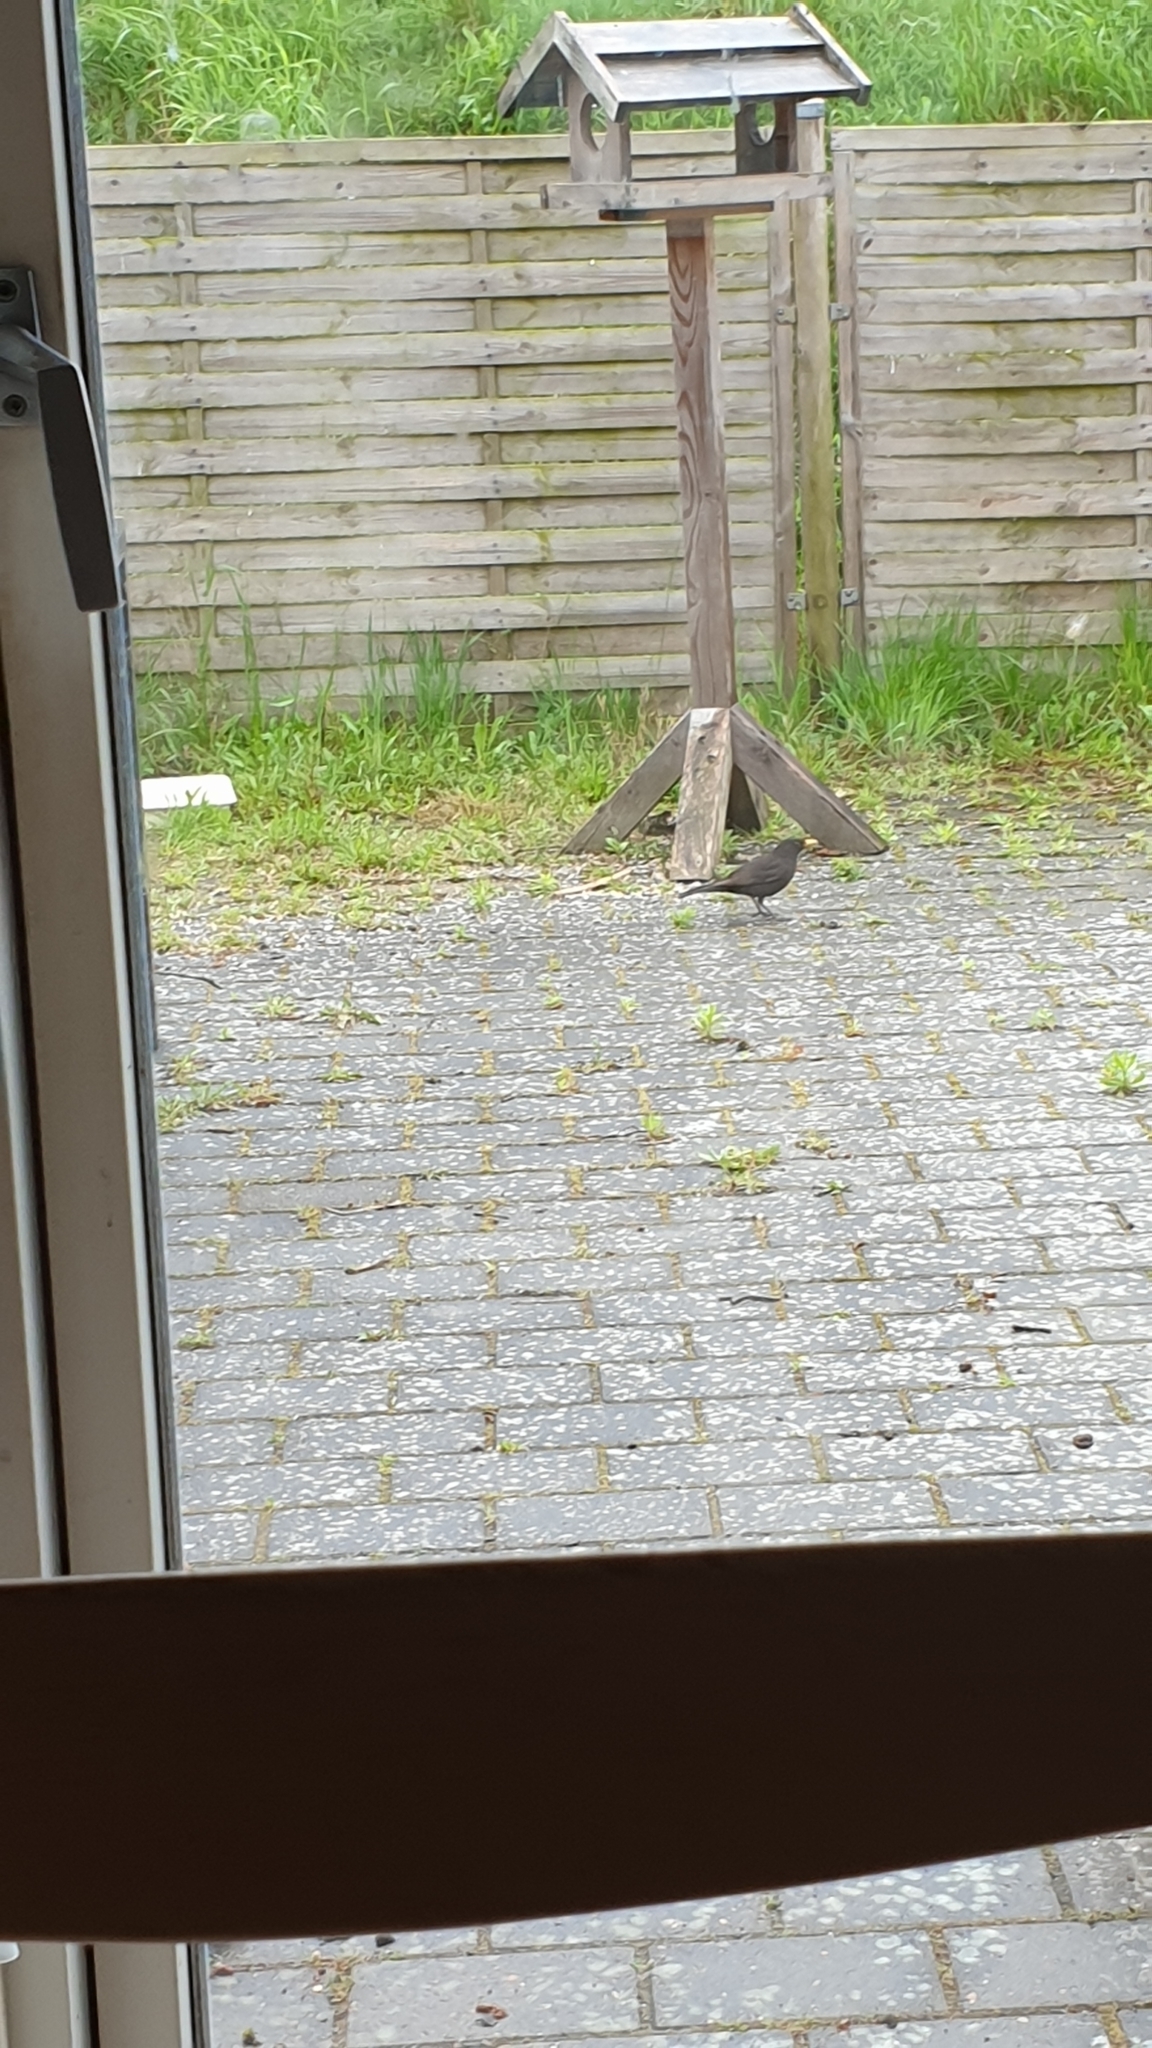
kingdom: Animalia
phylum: Chordata
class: Aves
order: Passeriformes
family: Turdidae
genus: Turdus
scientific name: Turdus merula
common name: Common blackbird
